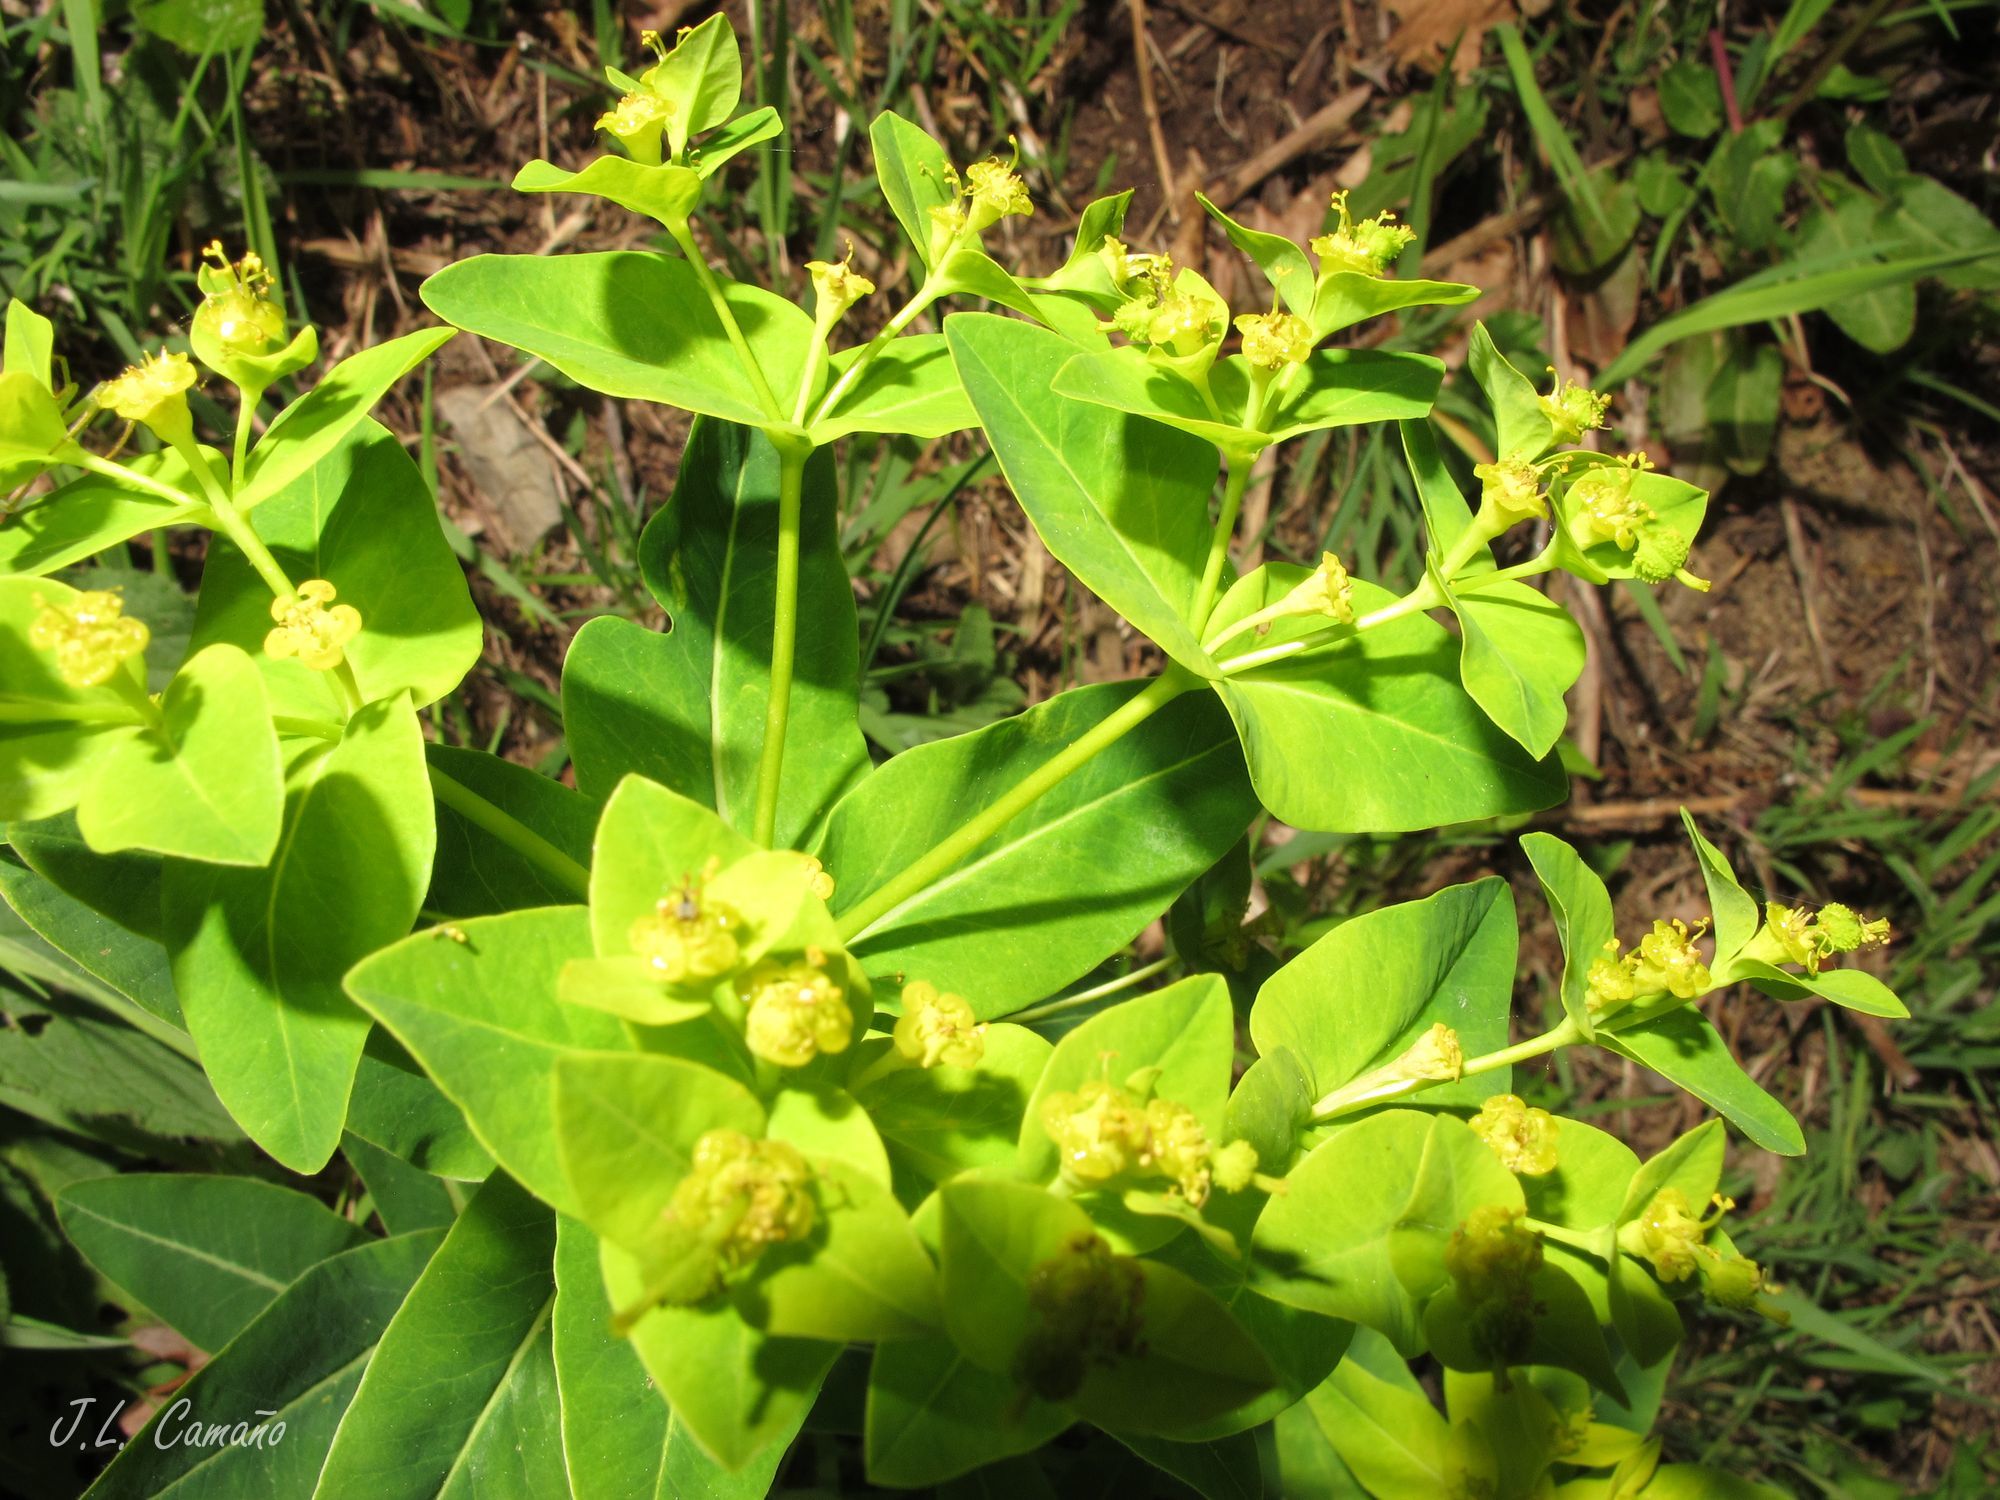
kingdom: Plantae
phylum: Tracheophyta
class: Magnoliopsida
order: Malpighiales
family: Euphorbiaceae
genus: Euphorbia
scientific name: Euphorbia hyberna
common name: Irish spurge
